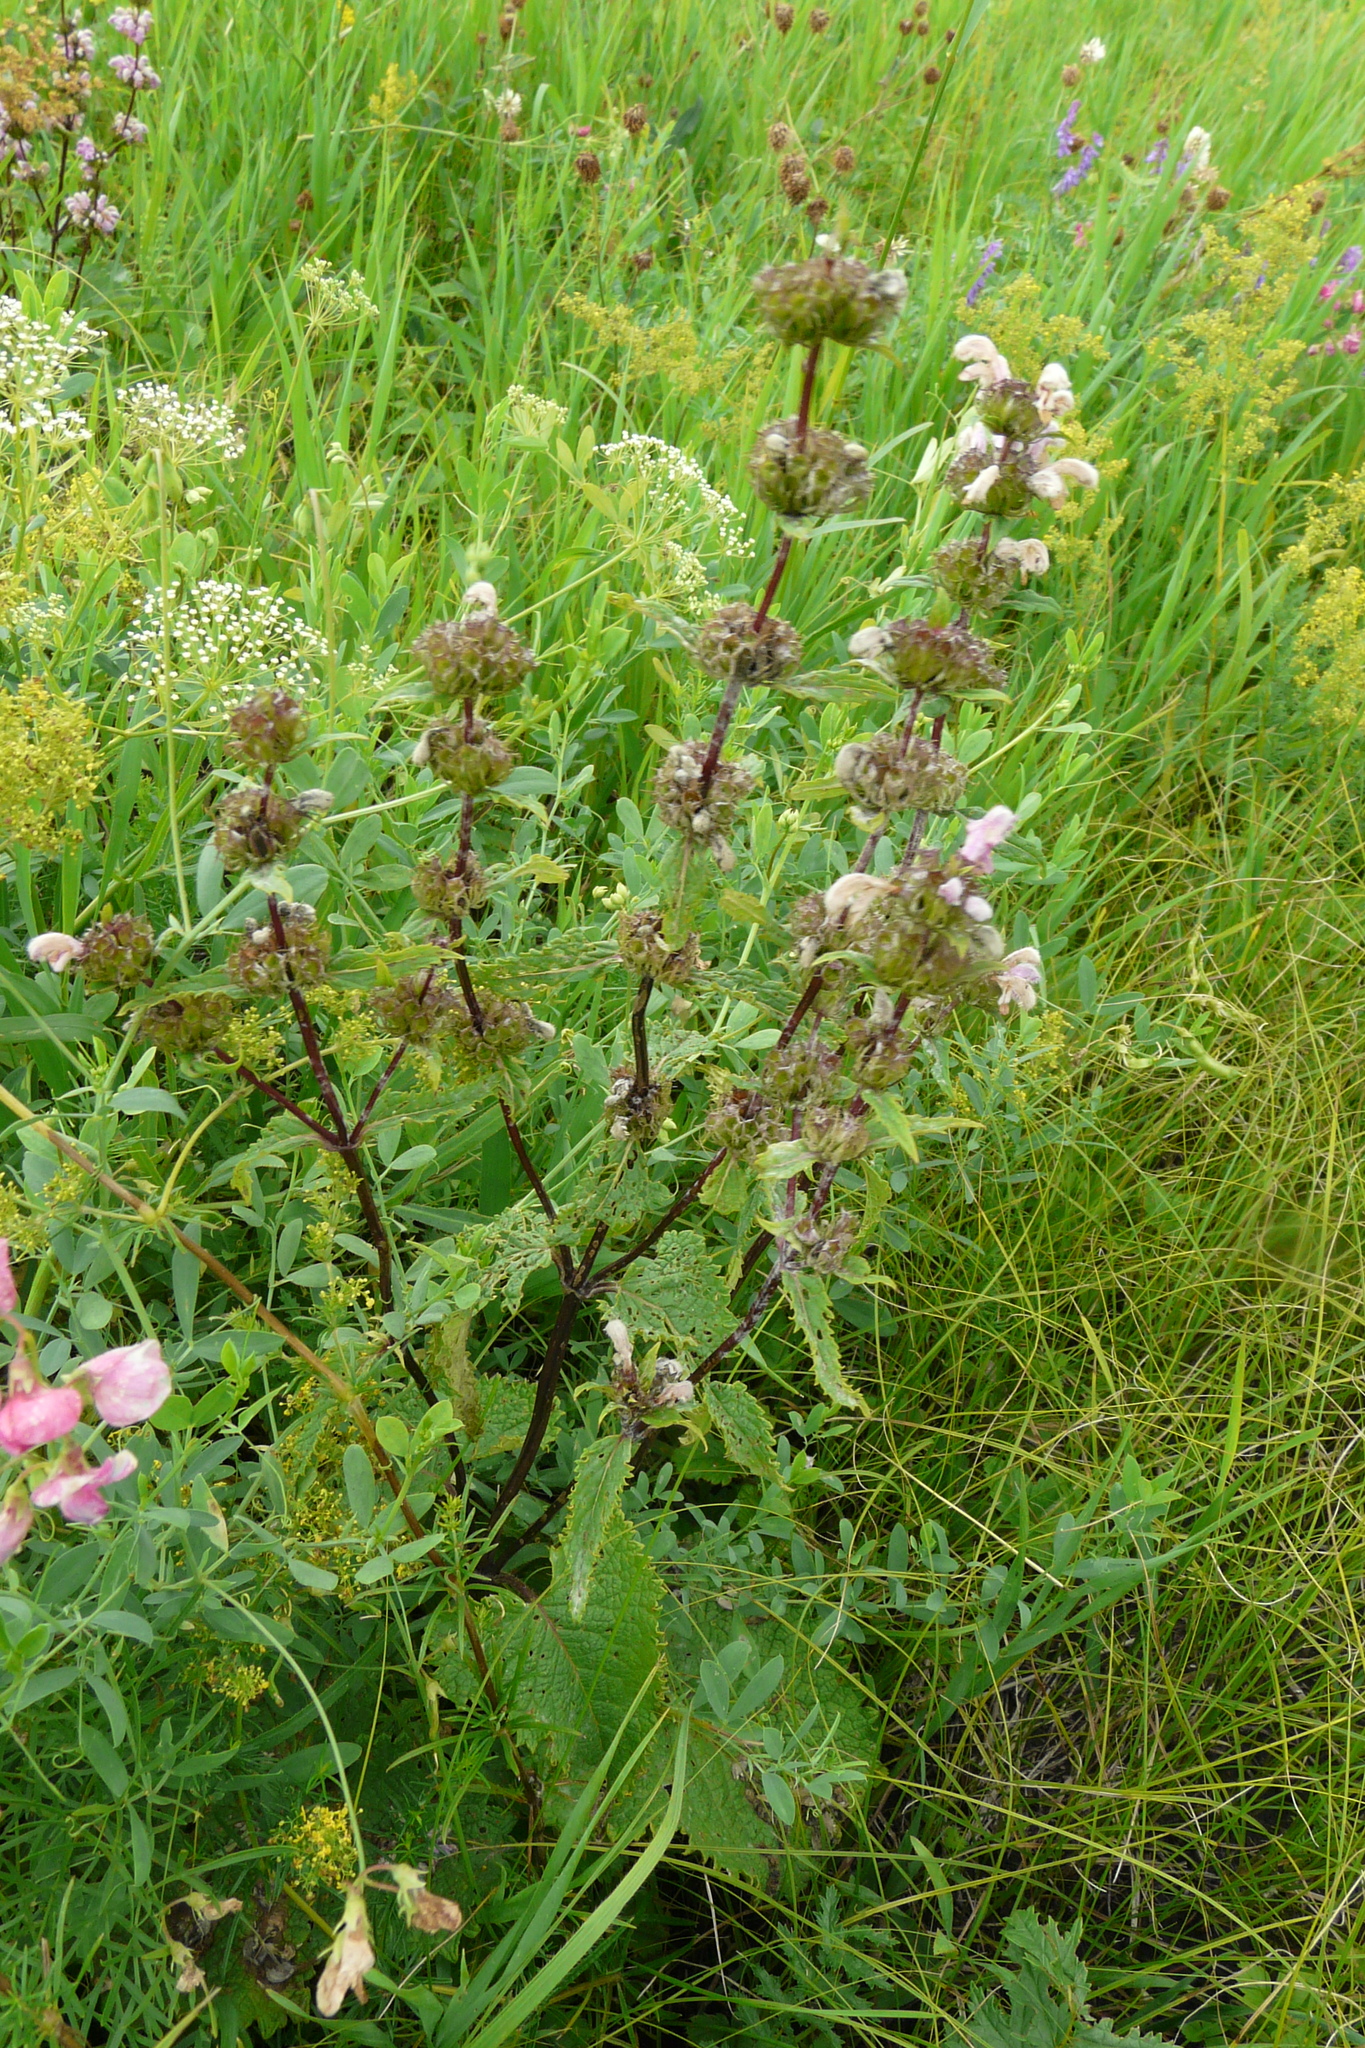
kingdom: Plantae
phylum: Tracheophyta
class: Magnoliopsida
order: Lamiales
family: Lamiaceae
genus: Phlomoides
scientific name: Phlomoides tuberosa
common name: Tuberous jerusalem sage
